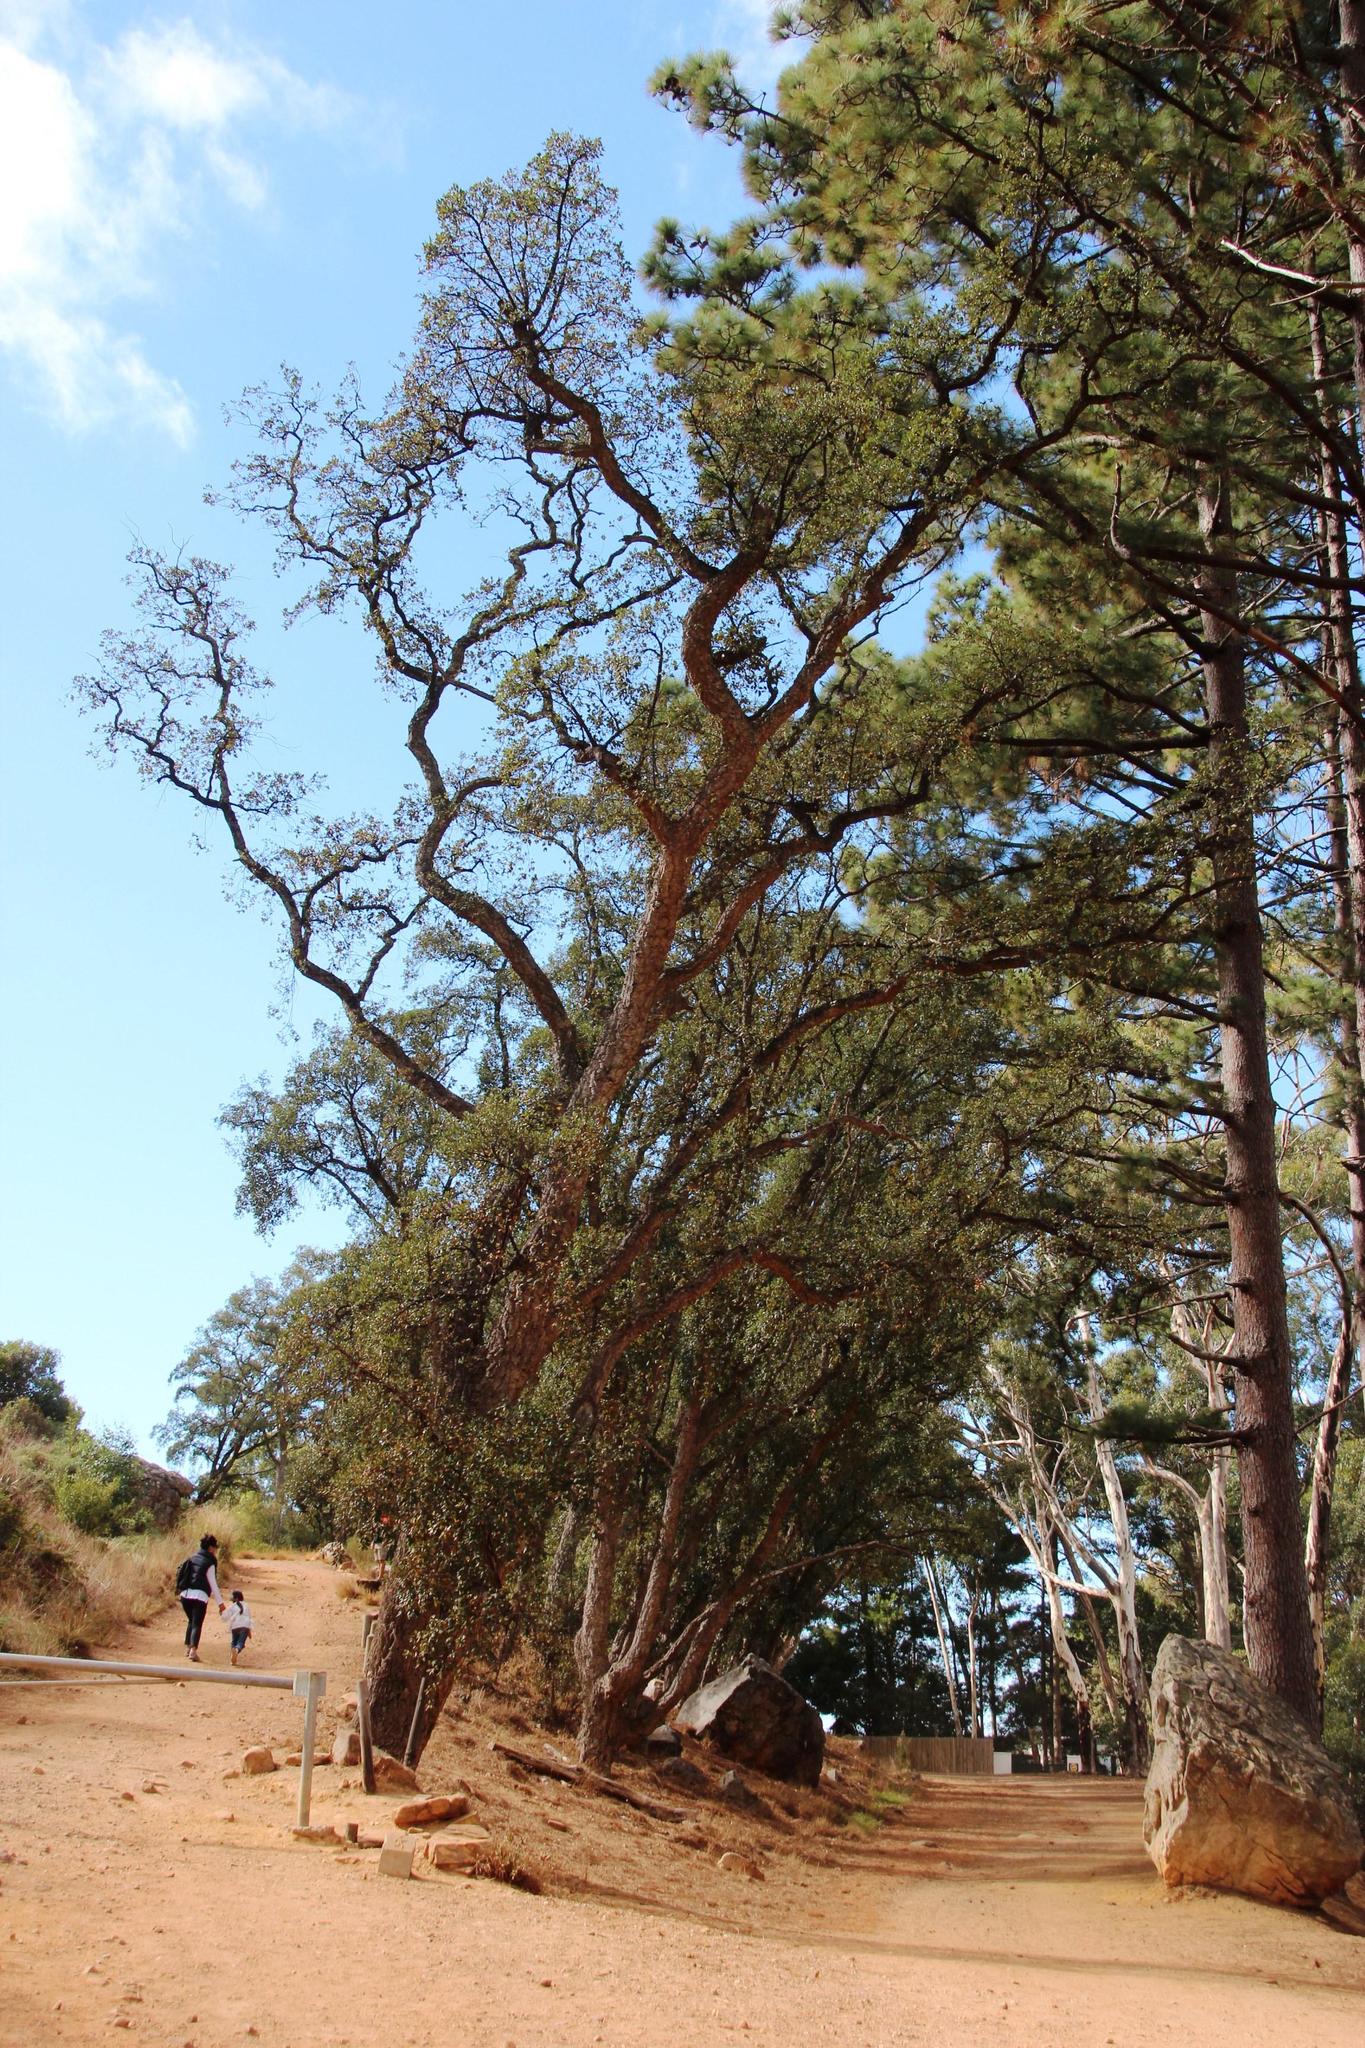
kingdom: Plantae
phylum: Tracheophyta
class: Magnoliopsida
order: Fagales
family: Fagaceae
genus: Quercus
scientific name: Quercus suber
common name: Cork oak
